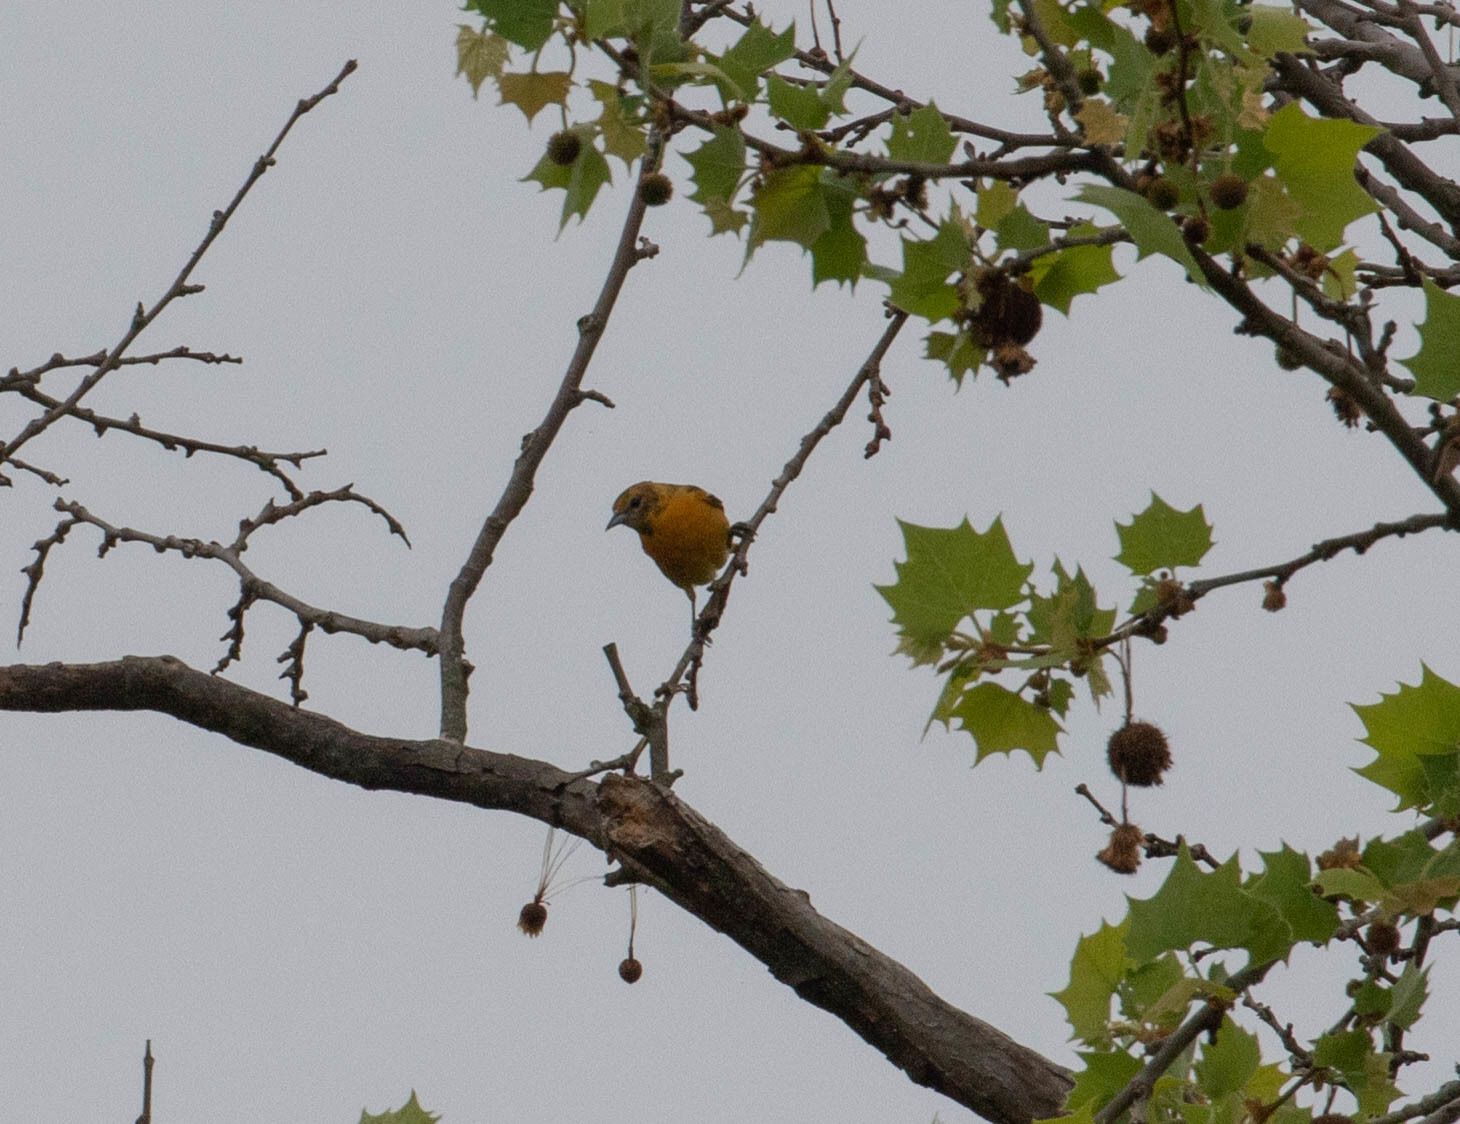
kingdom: Animalia
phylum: Chordata
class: Aves
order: Passeriformes
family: Icteridae
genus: Icterus
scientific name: Icterus galbula
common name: Baltimore oriole
